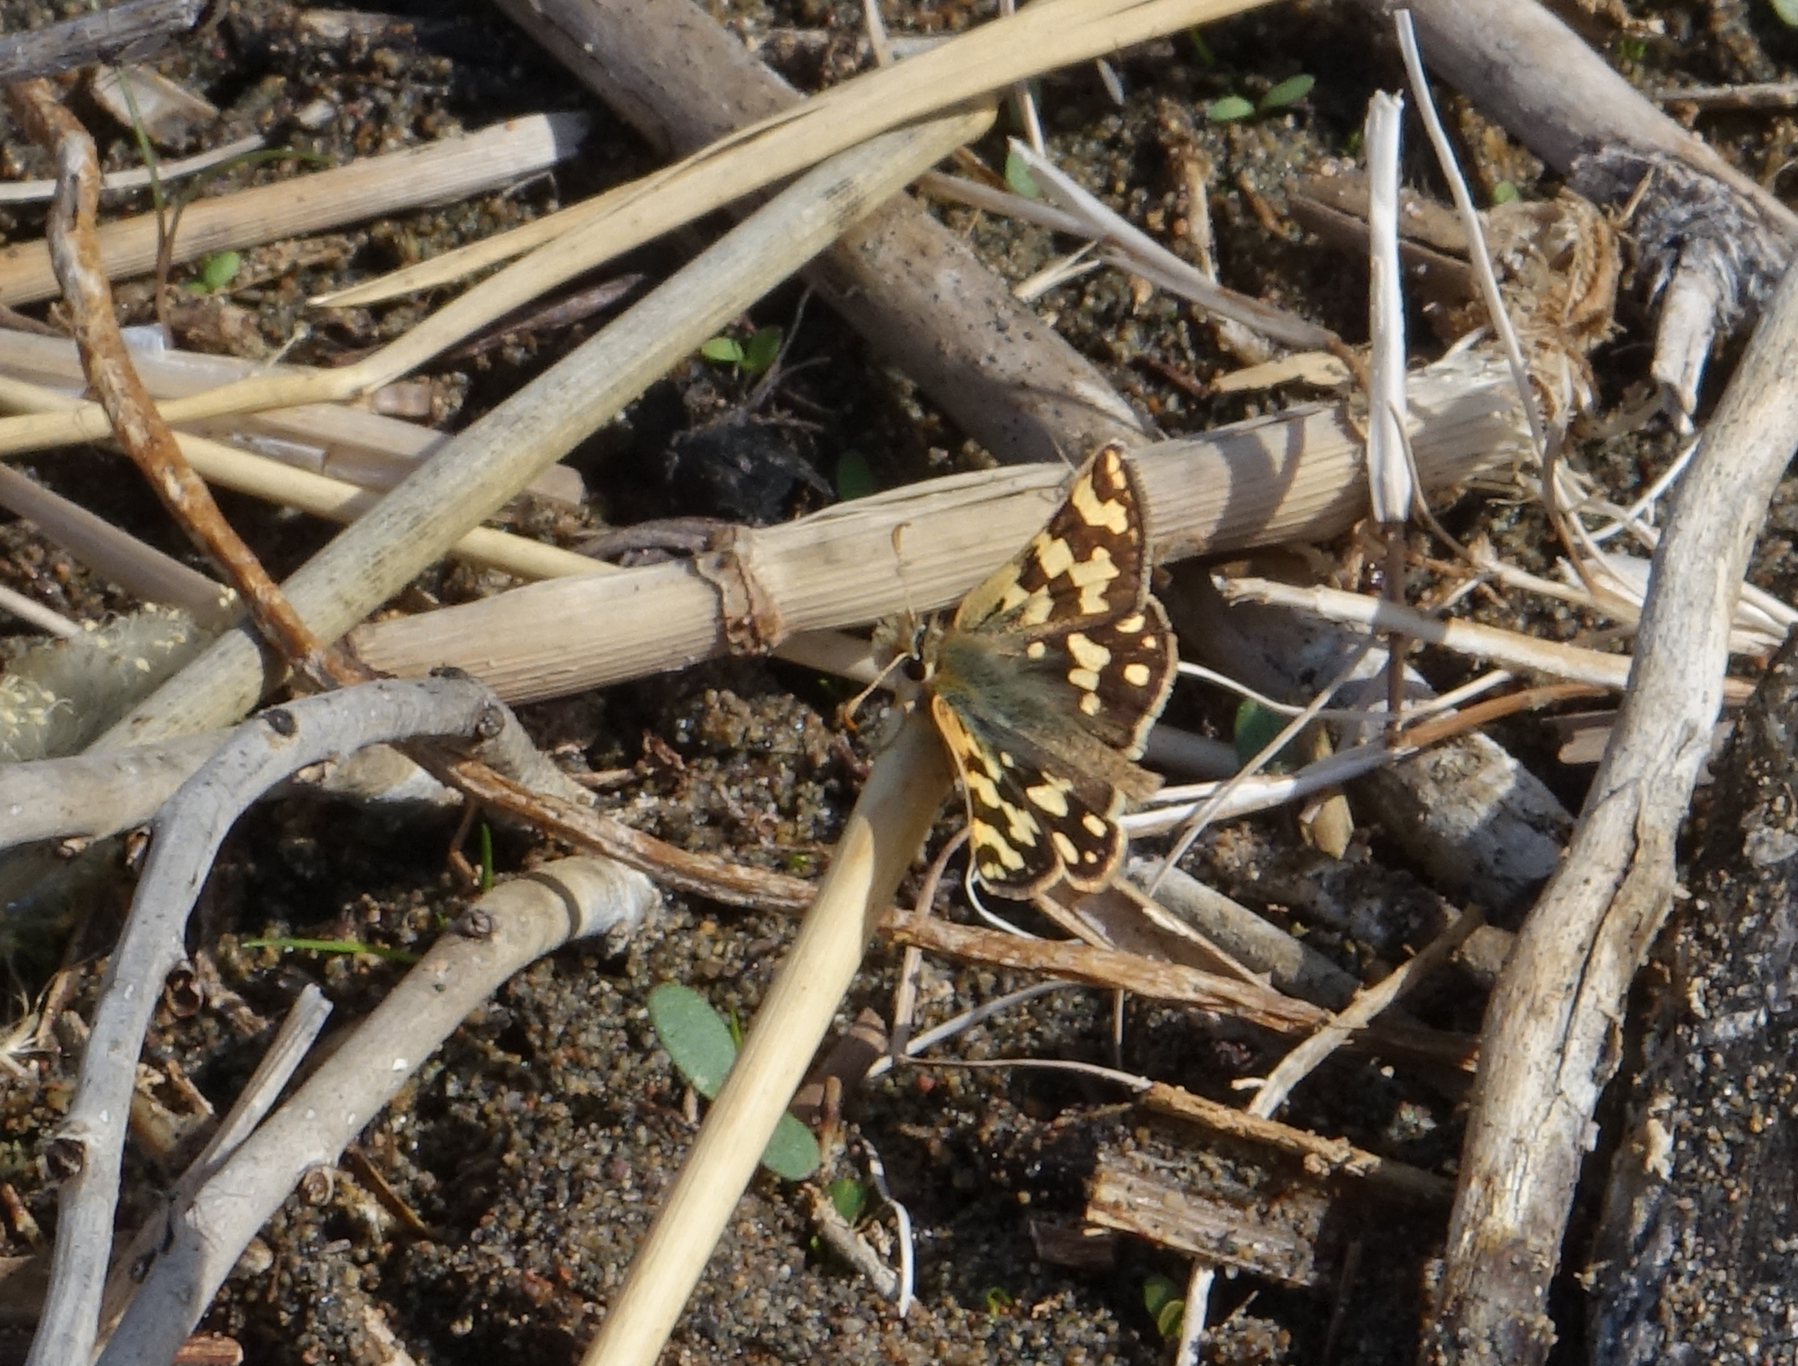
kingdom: Animalia
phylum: Arthropoda
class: Insecta
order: Lepidoptera
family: Hesperiidae
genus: Carterocephalus
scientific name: Carterocephalus argyrostigma
